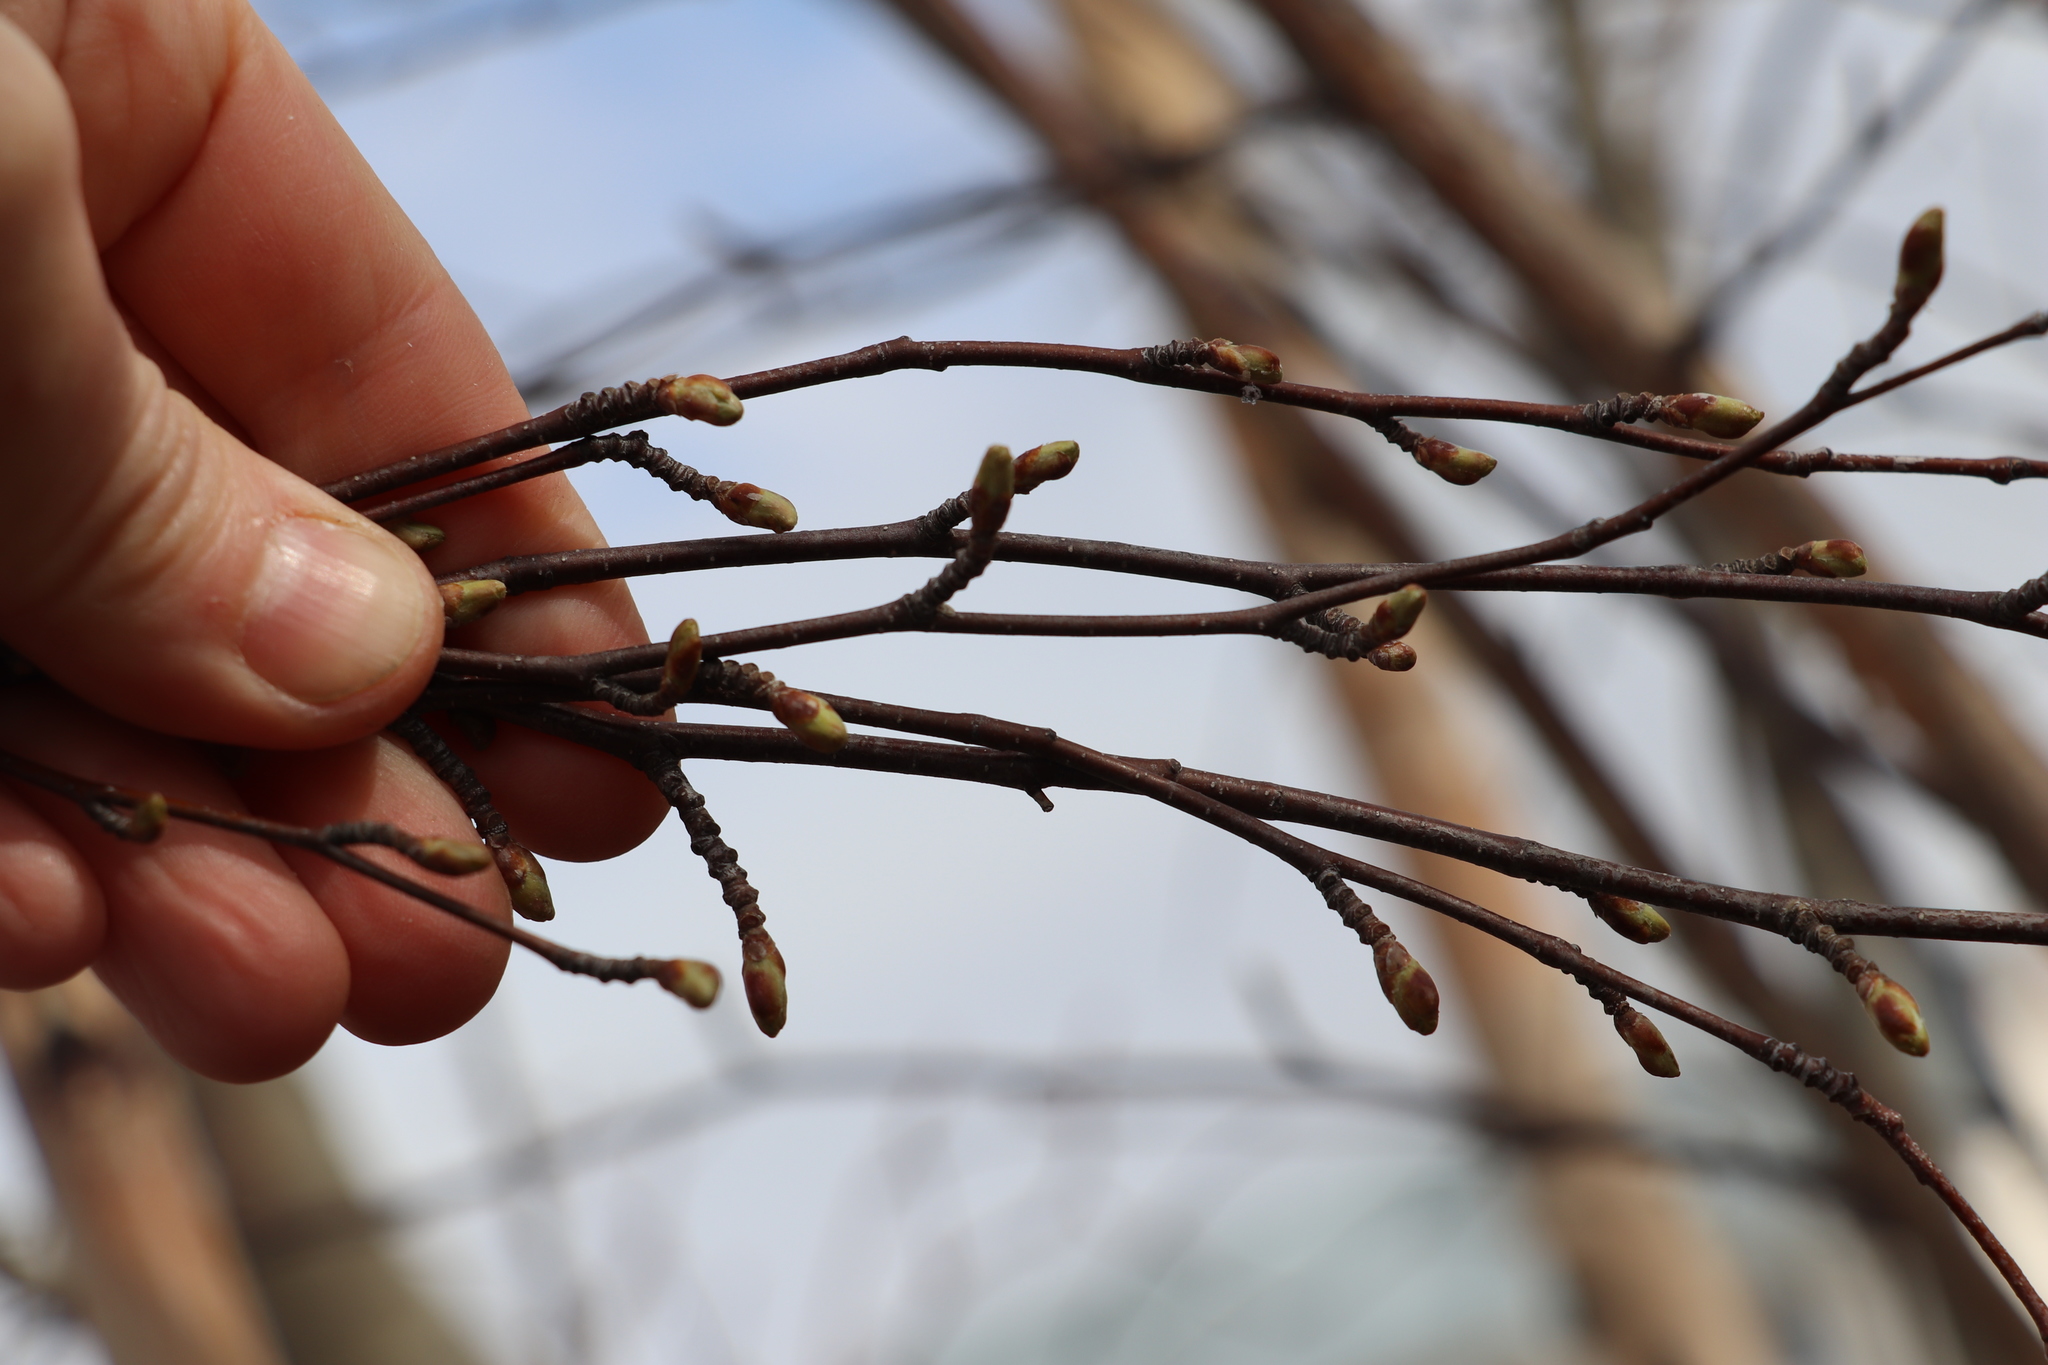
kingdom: Plantae
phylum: Tracheophyta
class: Magnoliopsida
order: Fagales
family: Betulaceae
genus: Betula
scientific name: Betula pubescens
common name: Downy birch
